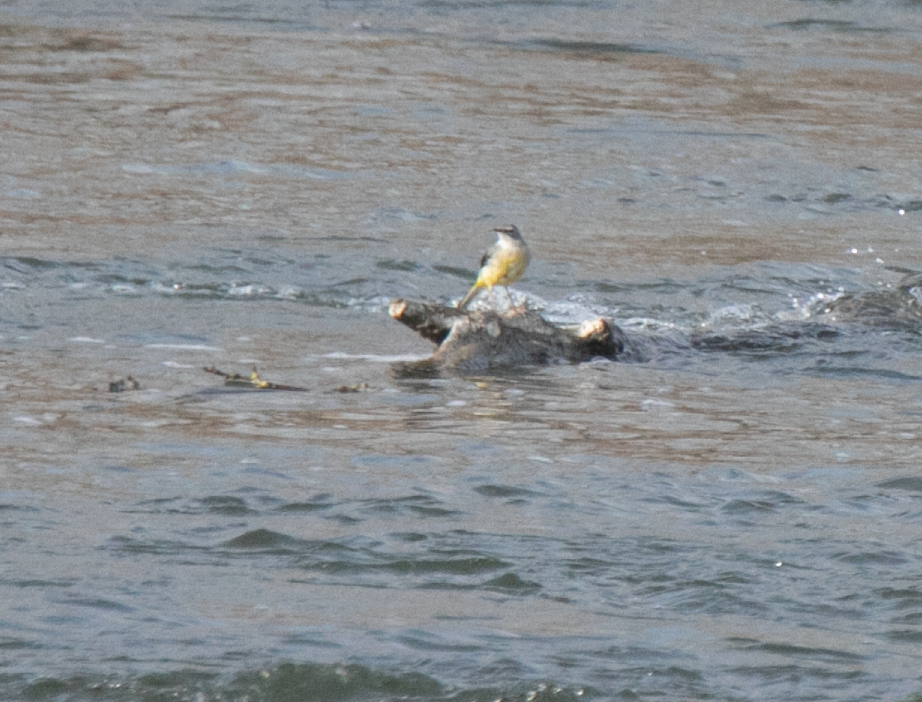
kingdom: Animalia
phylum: Chordata
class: Aves
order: Passeriformes
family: Motacillidae
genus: Motacilla
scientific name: Motacilla cinerea
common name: Grey wagtail
